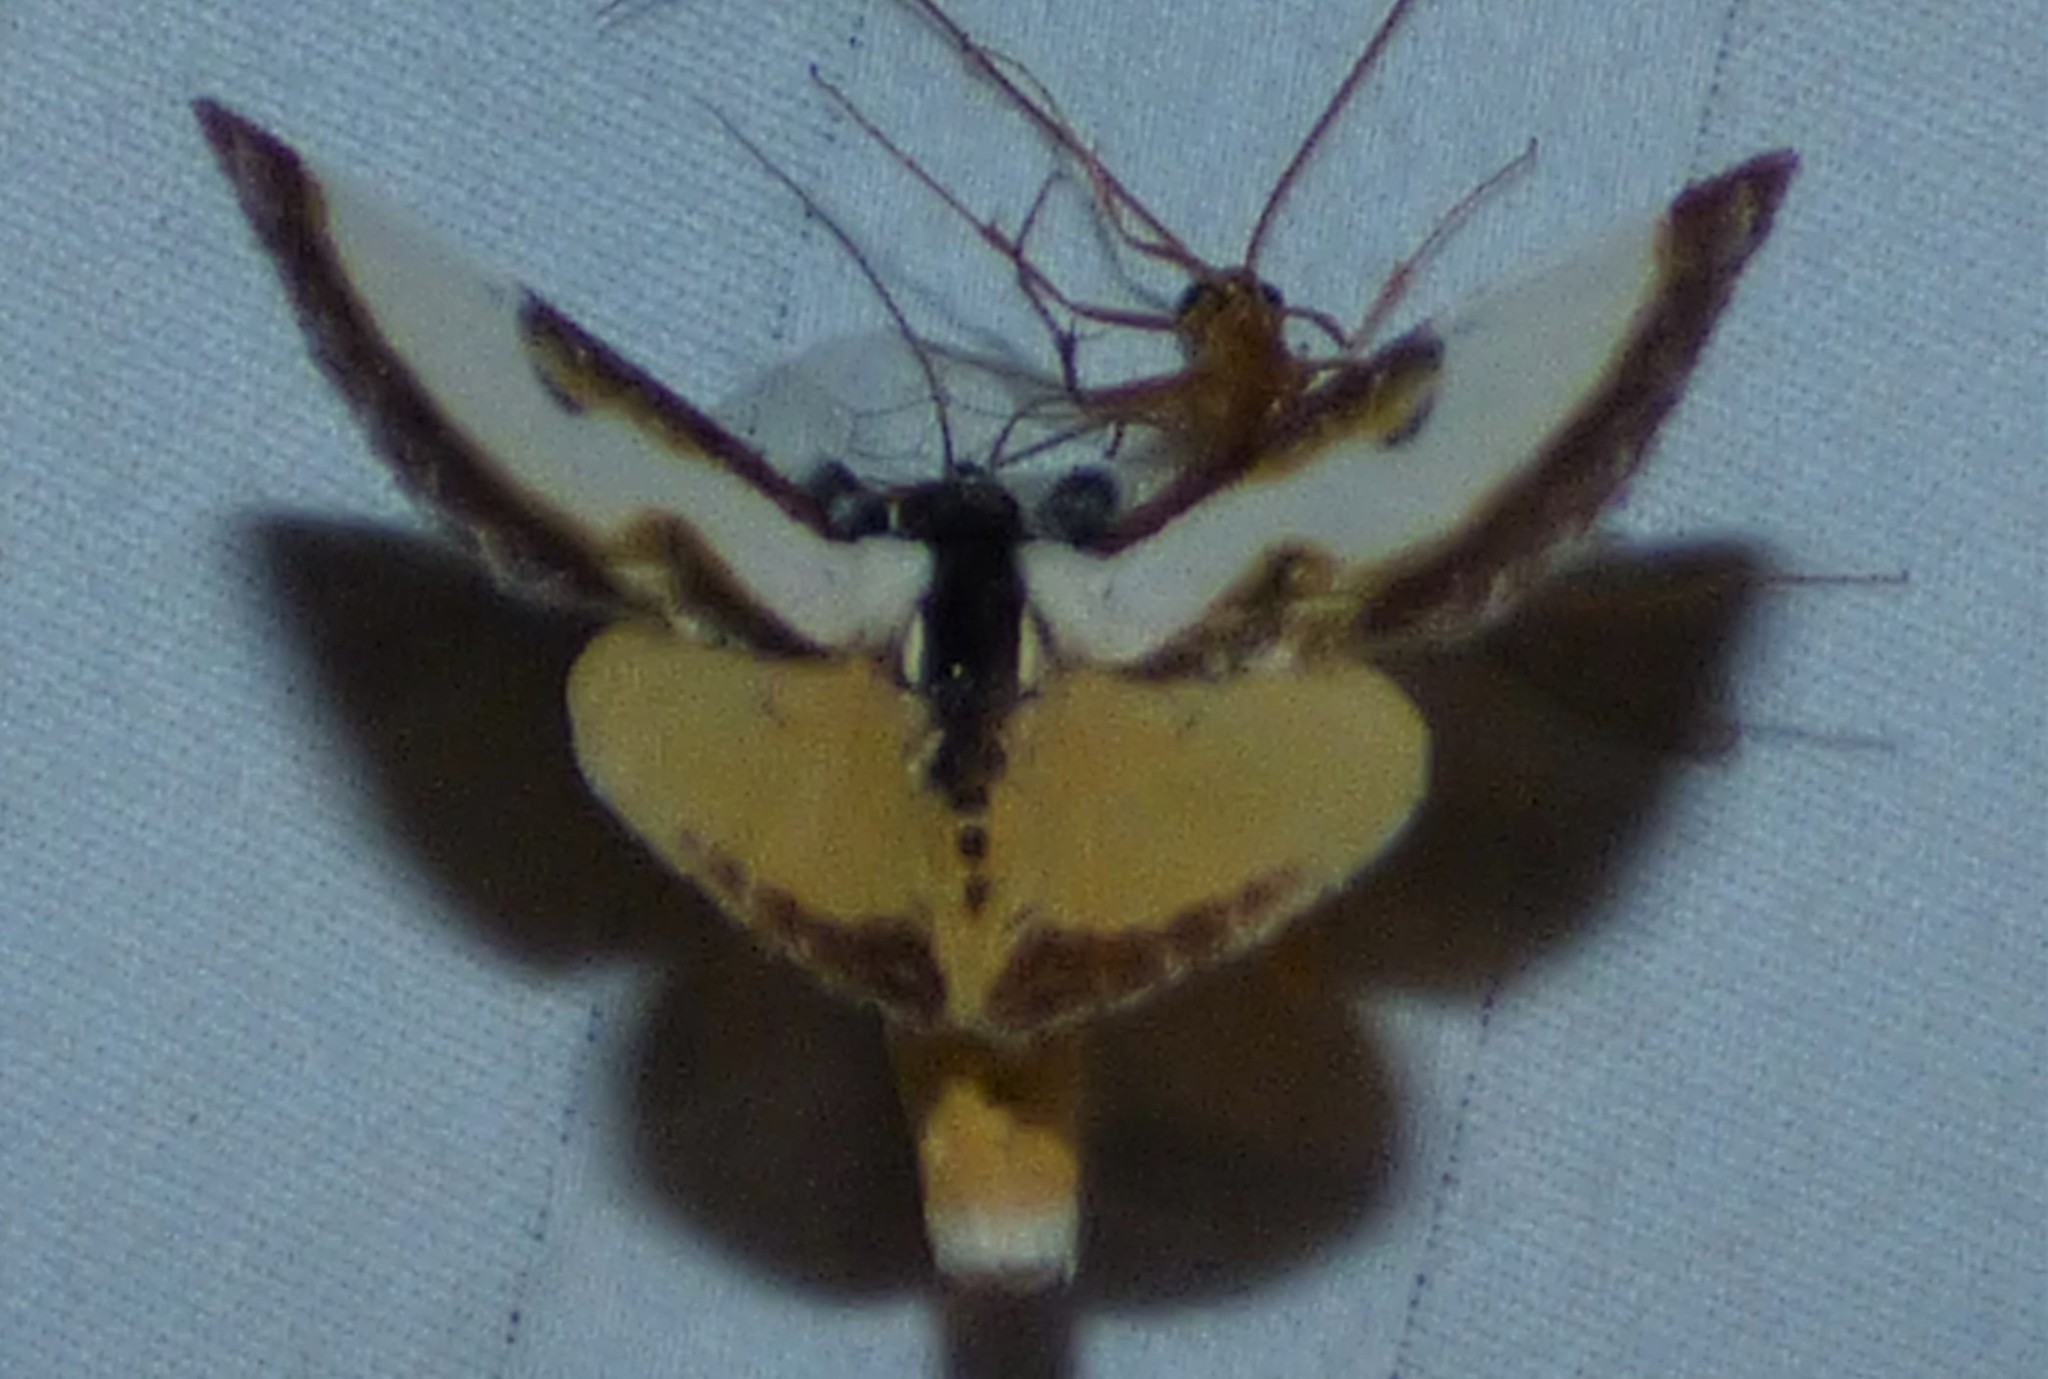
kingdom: Animalia
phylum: Arthropoda
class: Insecta
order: Lepidoptera
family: Noctuidae
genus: Eudryas
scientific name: Eudryas grata
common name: Beautiful wood-nymph
